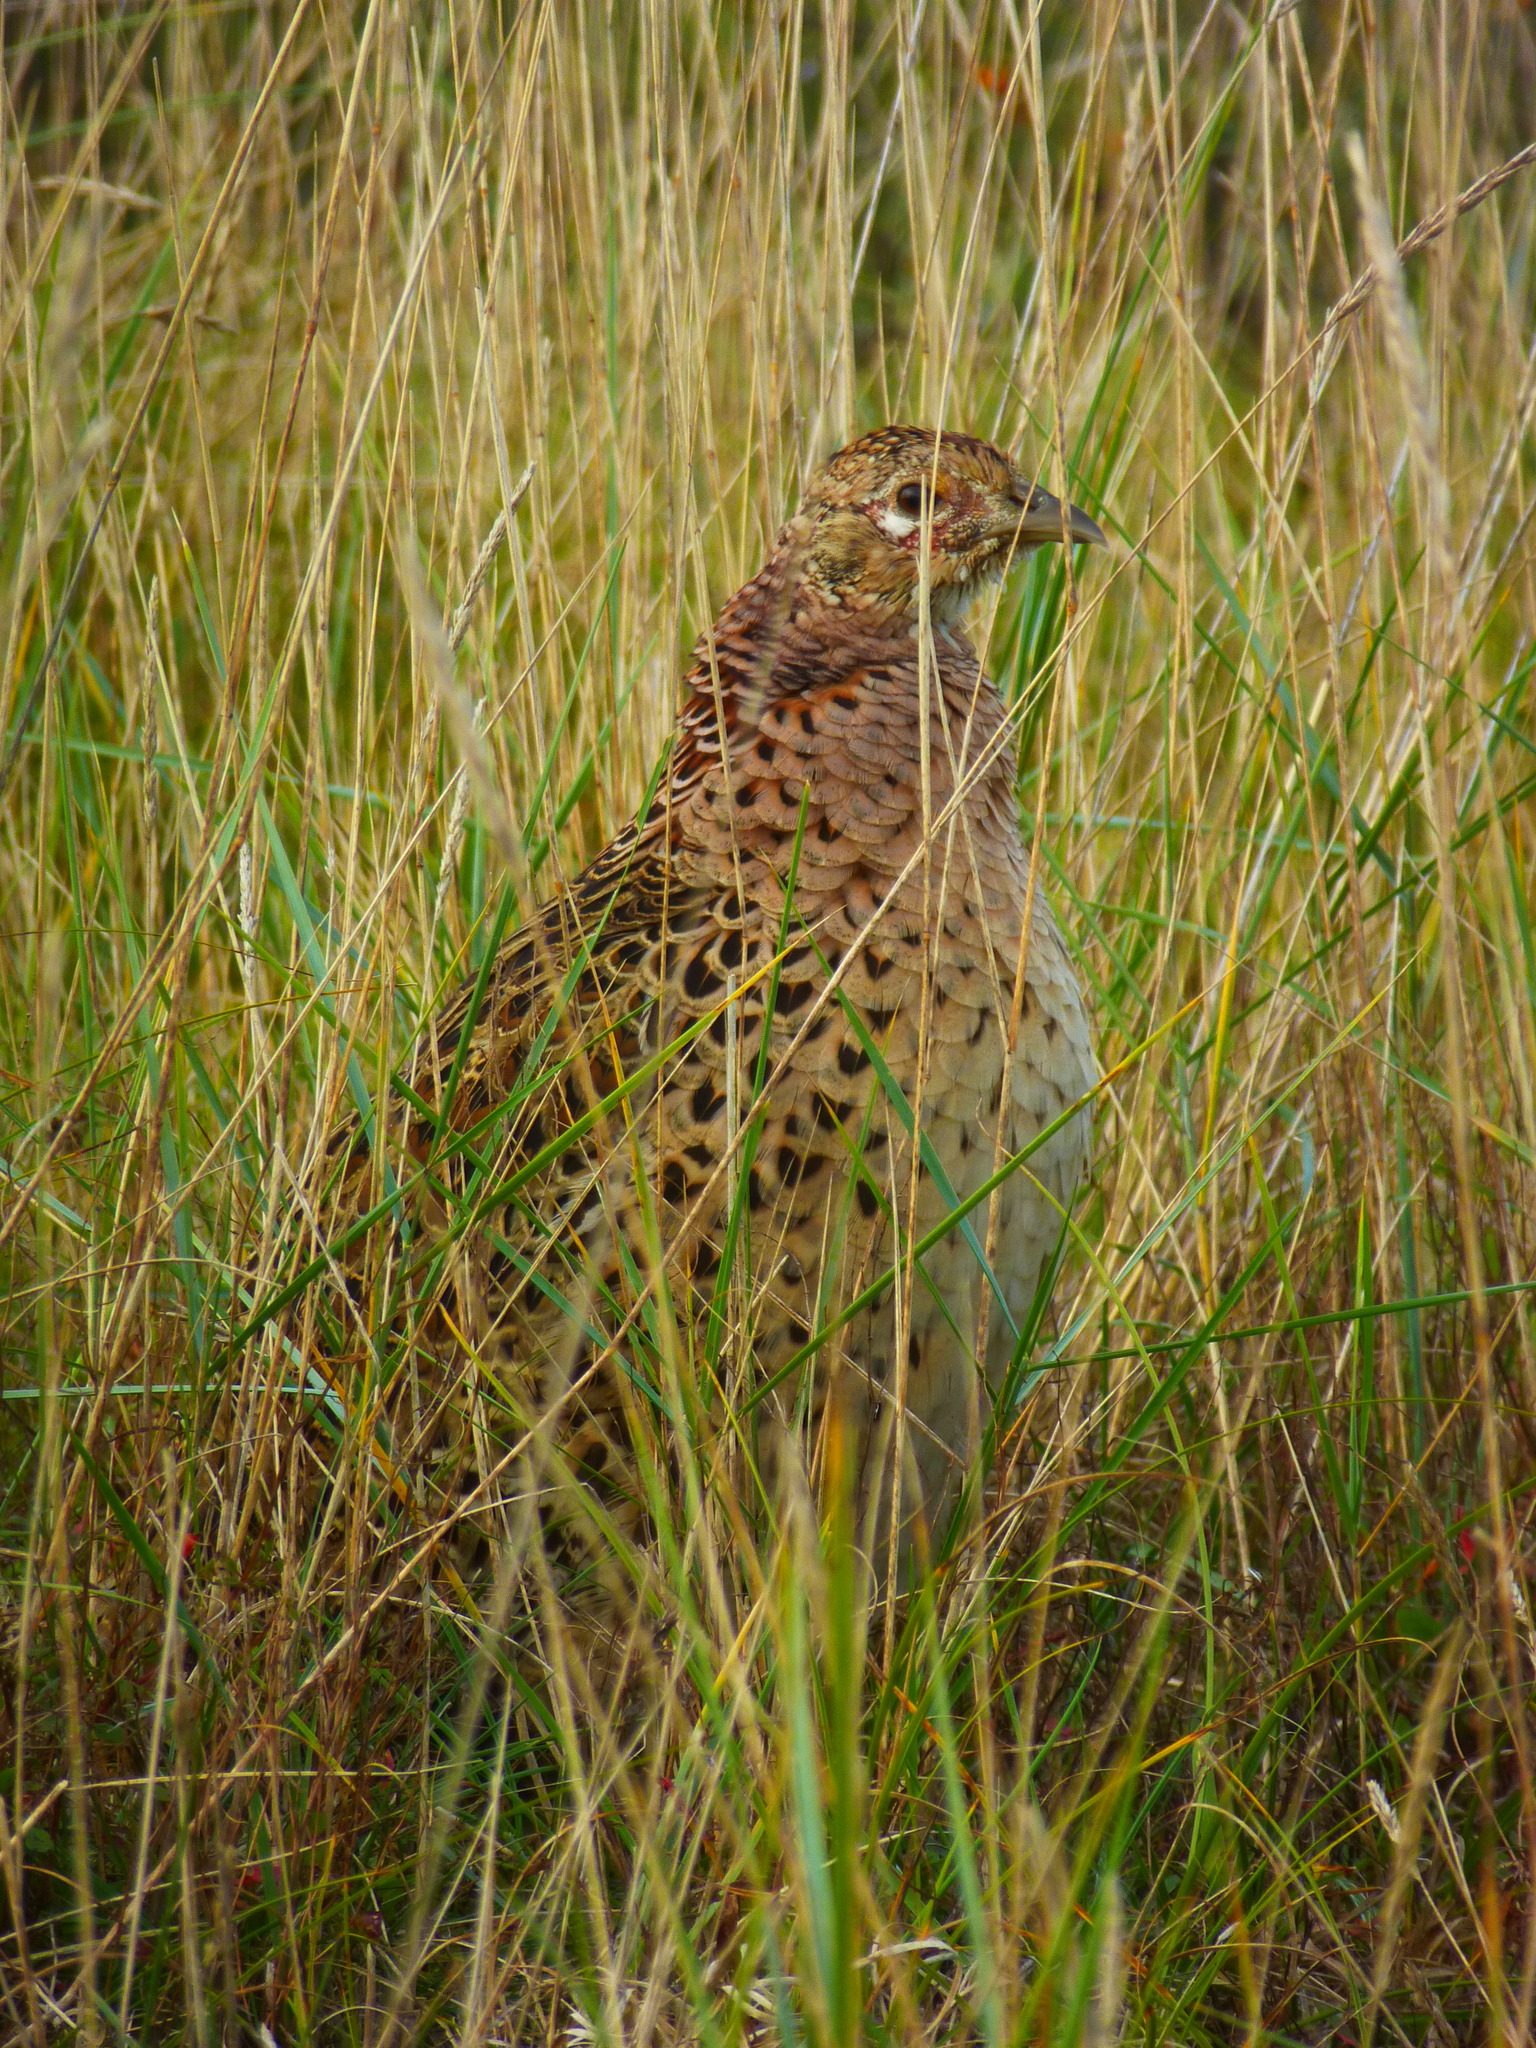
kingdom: Animalia
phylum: Chordata
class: Aves
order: Galliformes
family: Phasianidae
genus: Phasianus
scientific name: Phasianus colchicus
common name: Common pheasant
